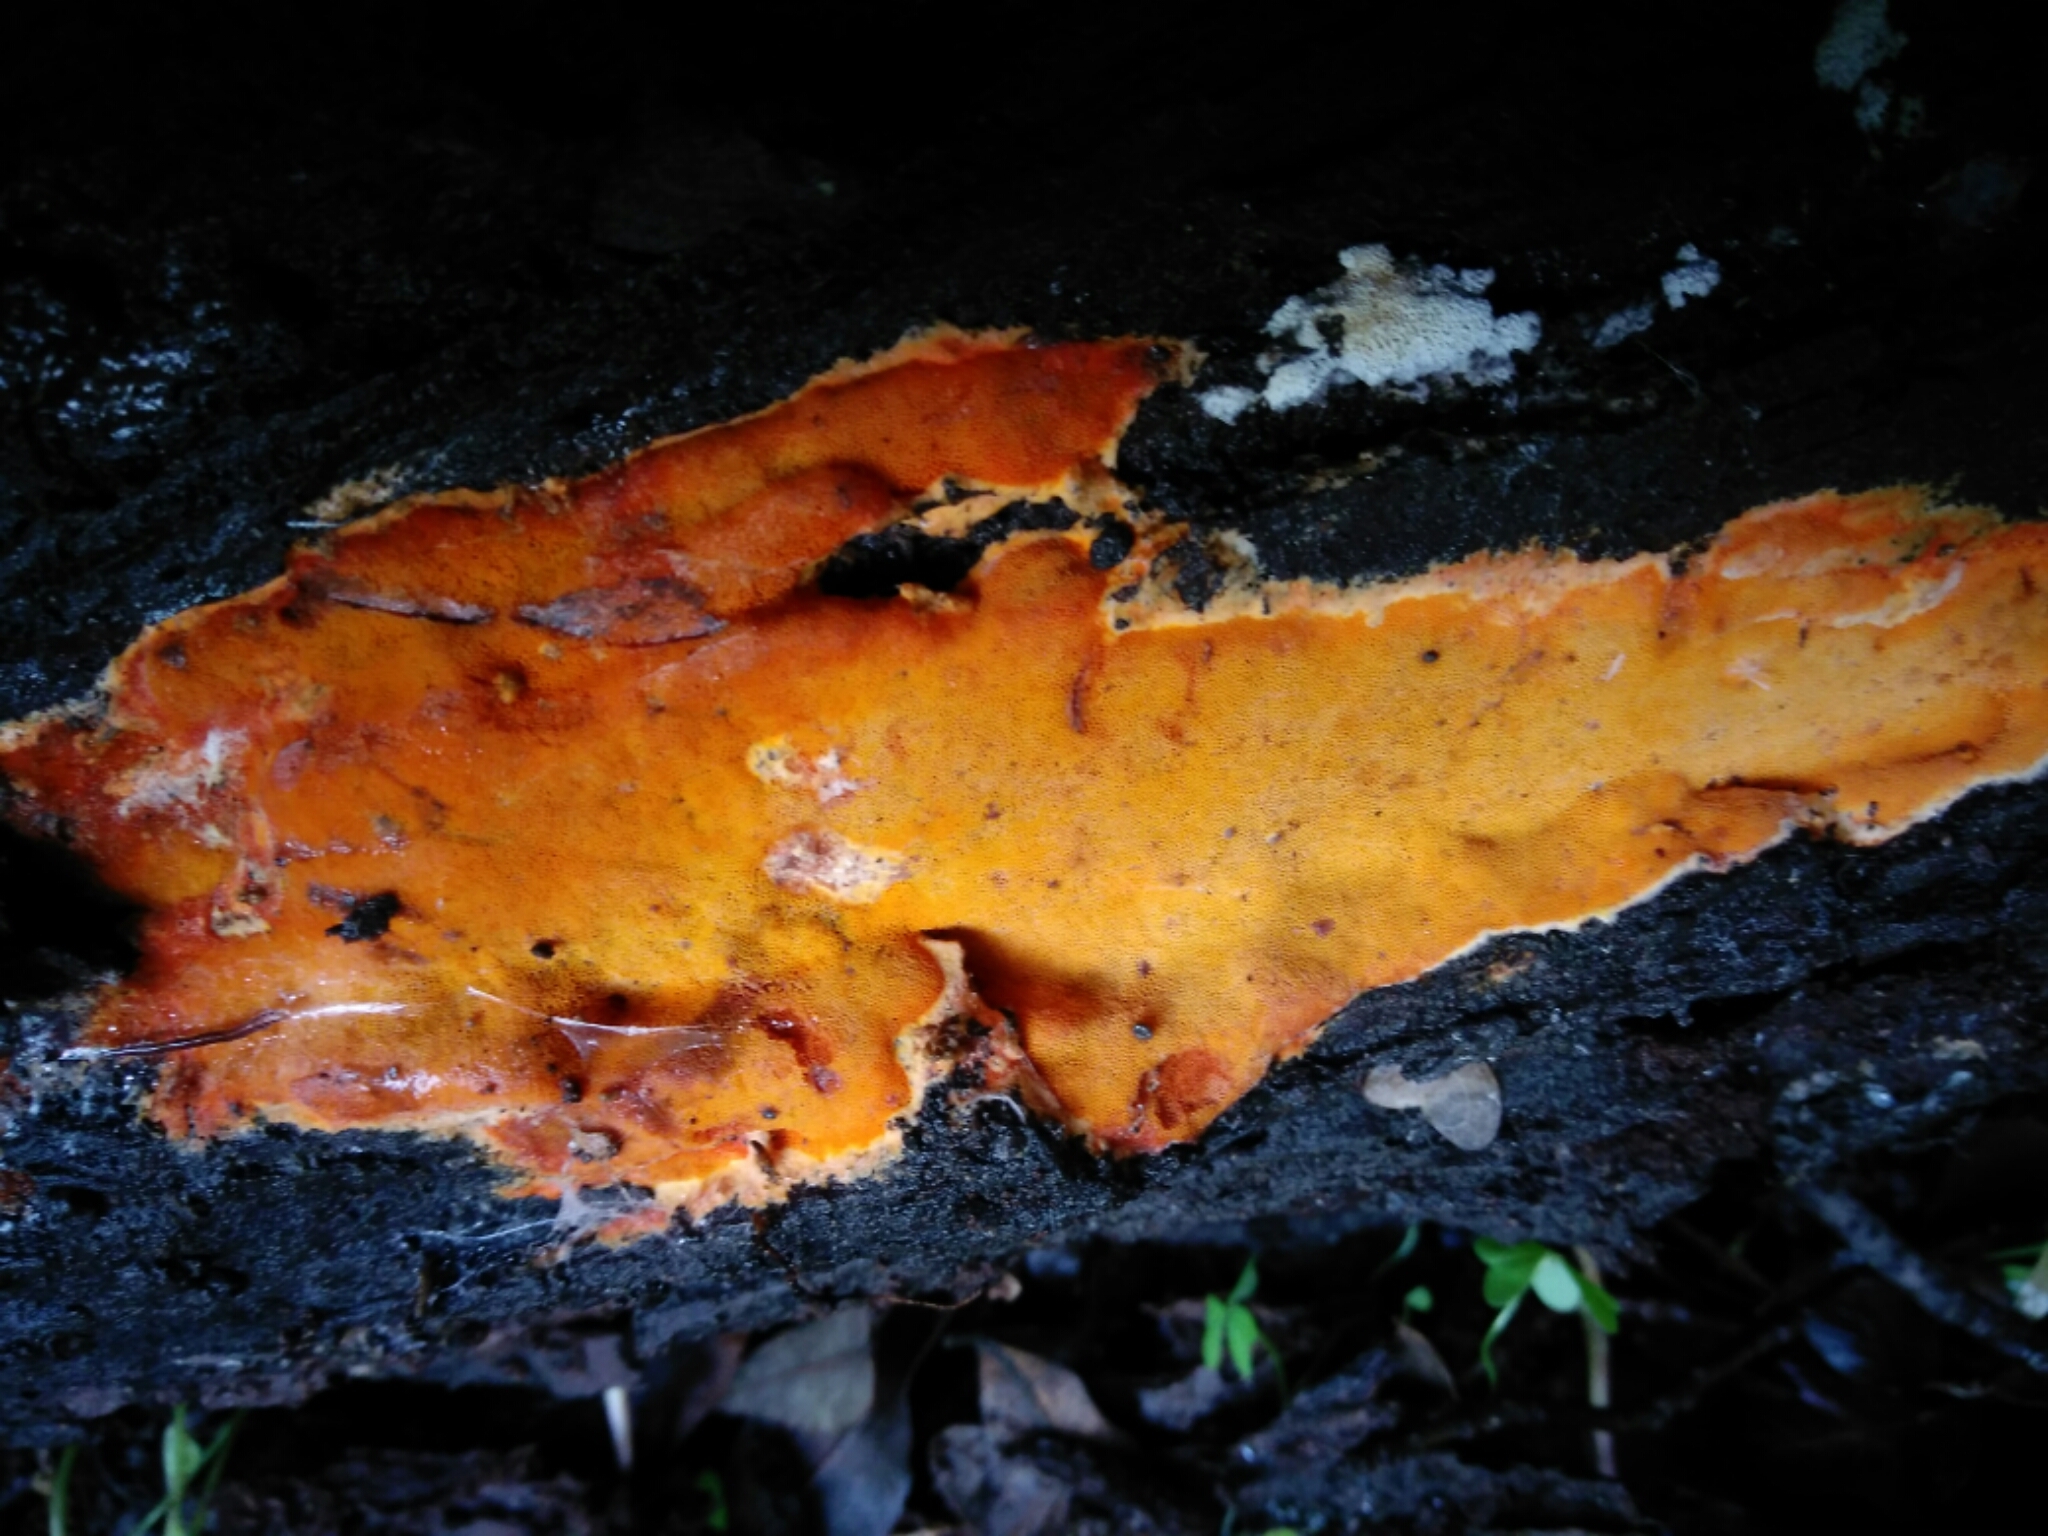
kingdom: Fungi
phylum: Basidiomycota
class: Agaricomycetes
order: Polyporales
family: Irpicaceae
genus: Ceriporia
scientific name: Ceriporia spissa
